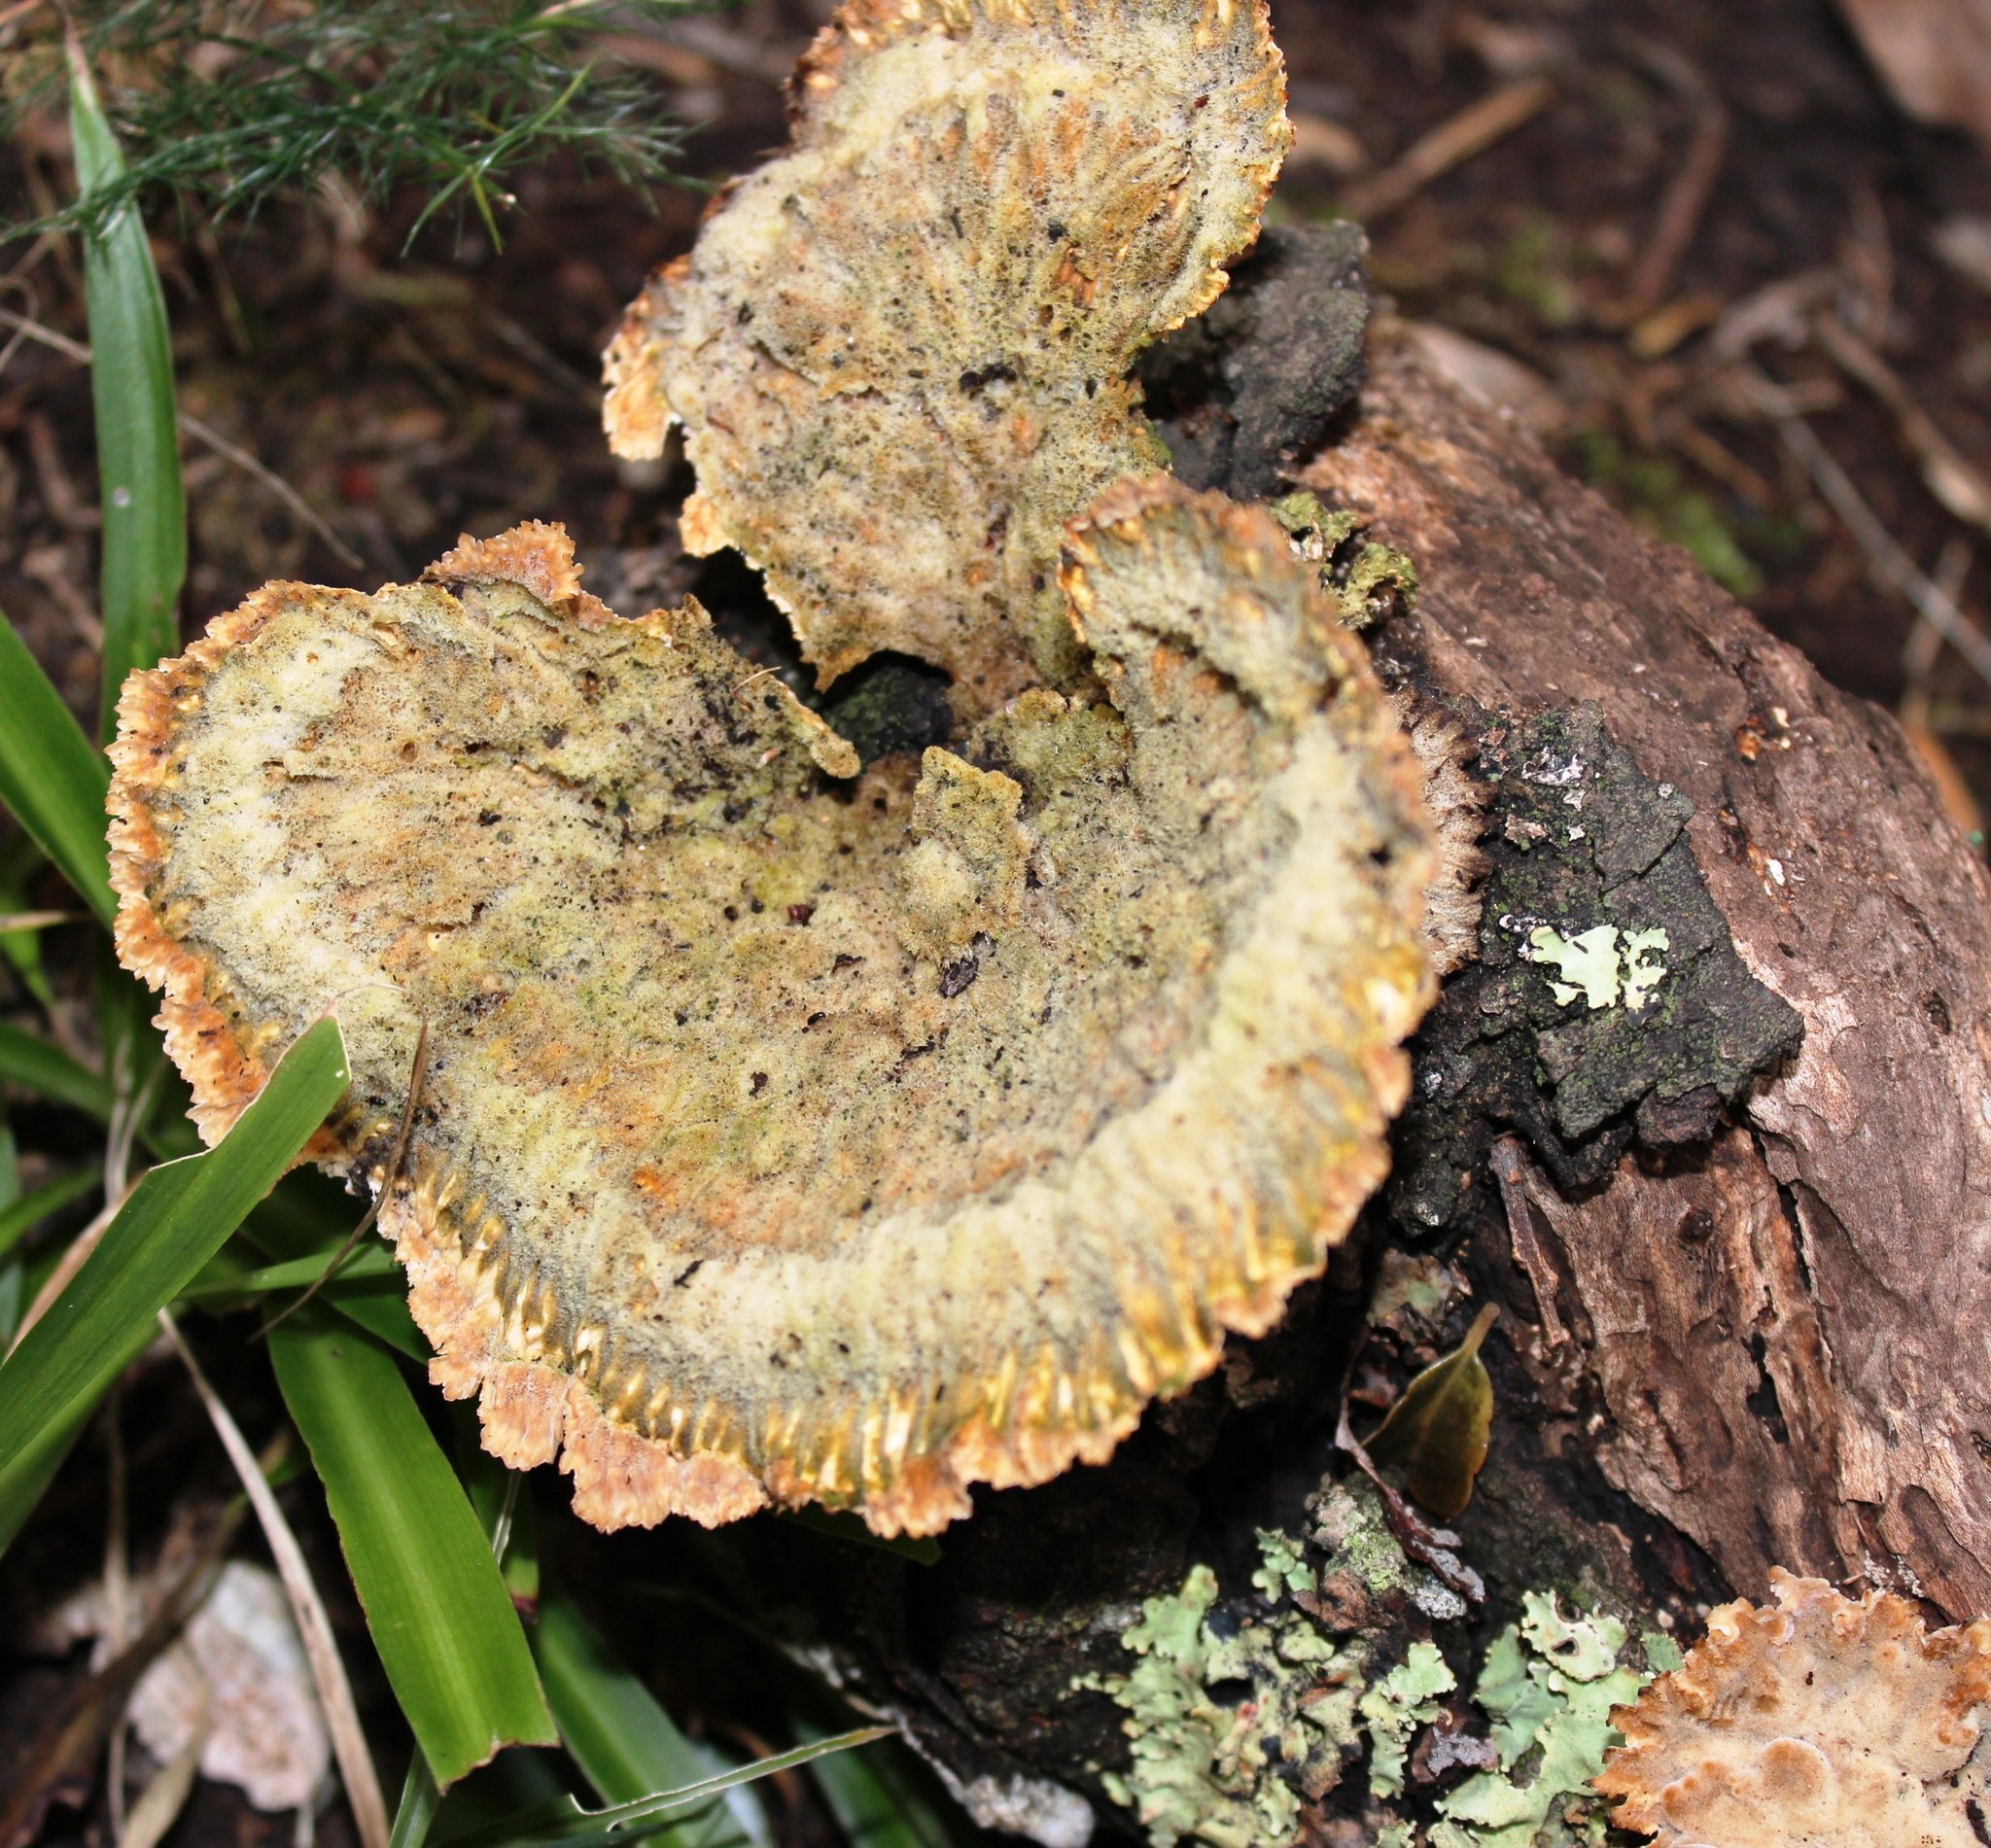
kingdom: Fungi
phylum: Basidiomycota
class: Agaricomycetes
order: Polyporales
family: Panaceae
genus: Cymatoderma
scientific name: Cymatoderma elegans
